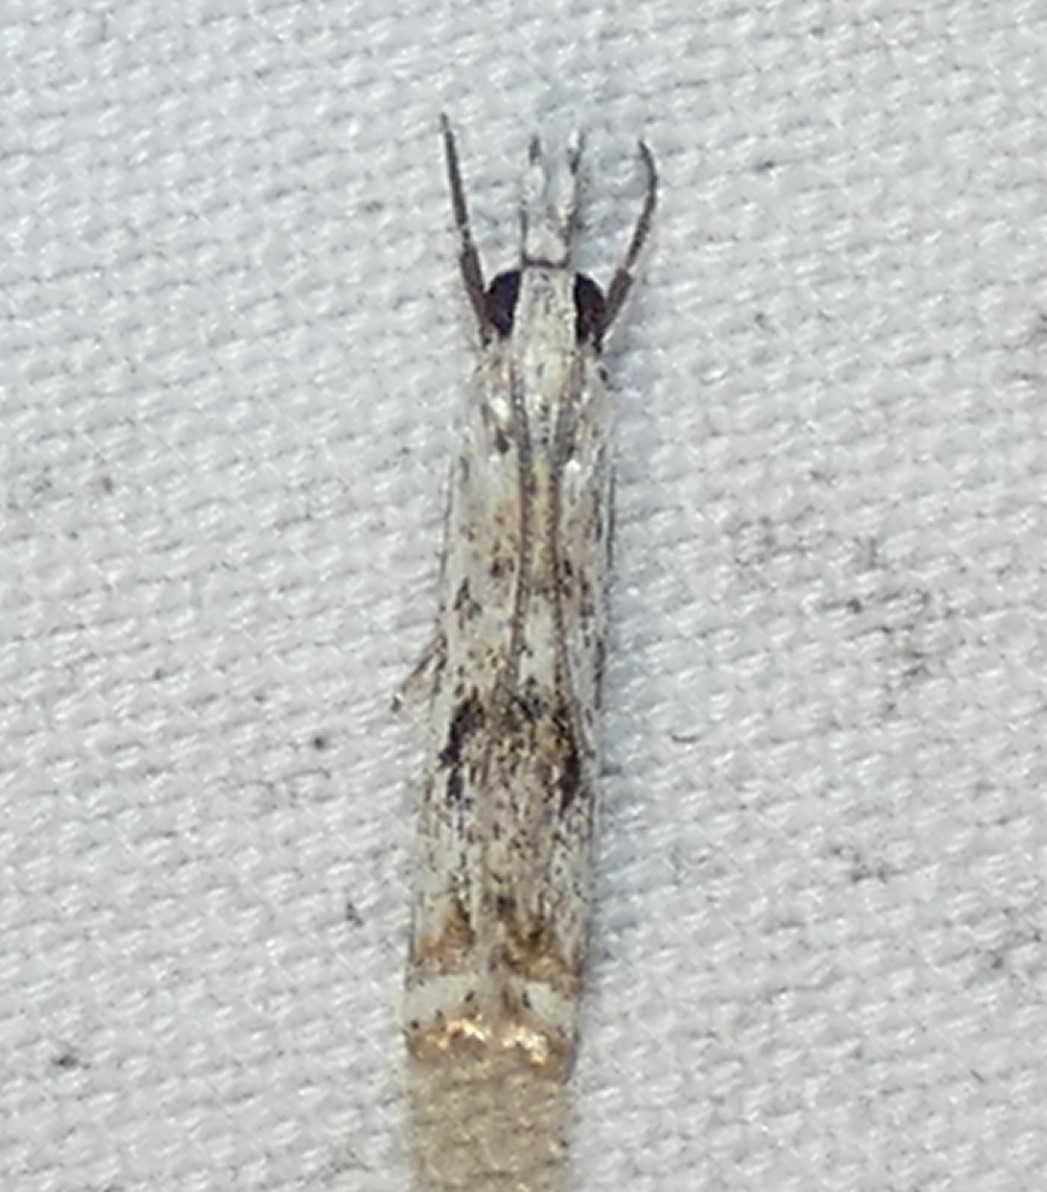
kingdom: Animalia
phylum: Arthropoda
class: Insecta
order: Lepidoptera
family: Crambidae
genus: Microcrambus
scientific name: Microcrambus immunellus
